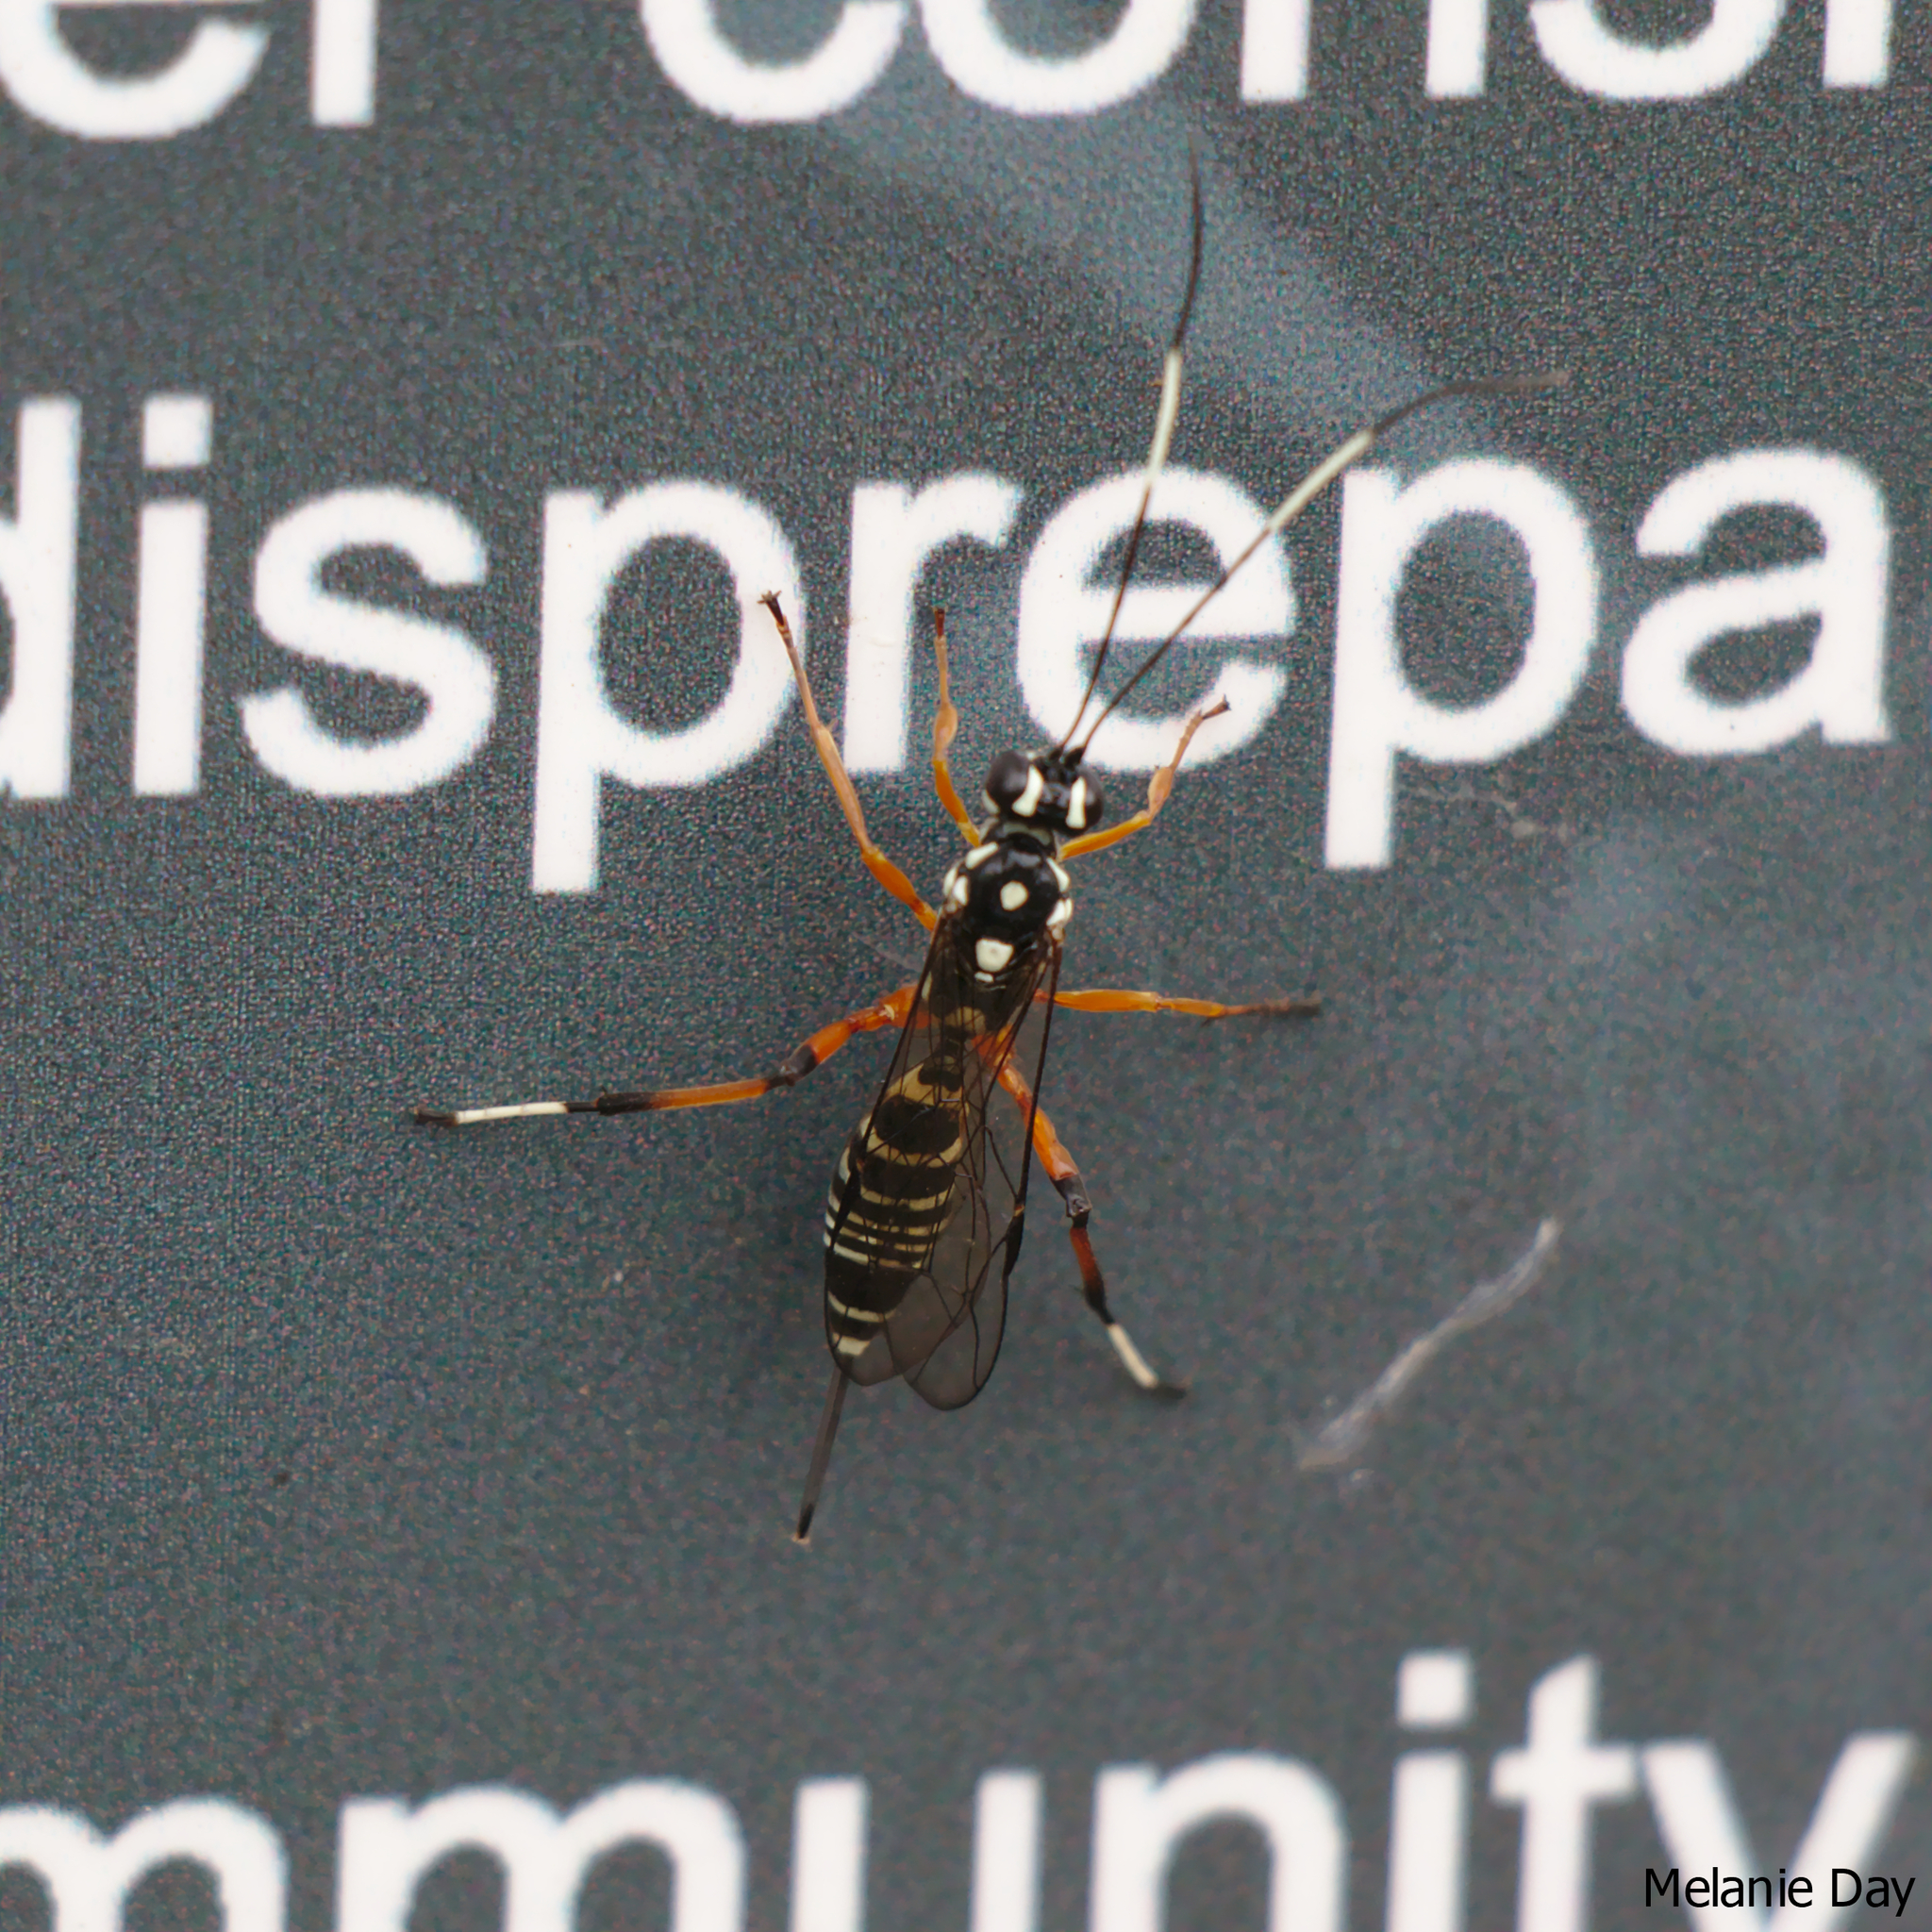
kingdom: Animalia
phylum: Arthropoda
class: Insecta
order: Hymenoptera
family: Ichneumonidae
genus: Xanthocryptus
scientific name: Xanthocryptus novozealandicus
